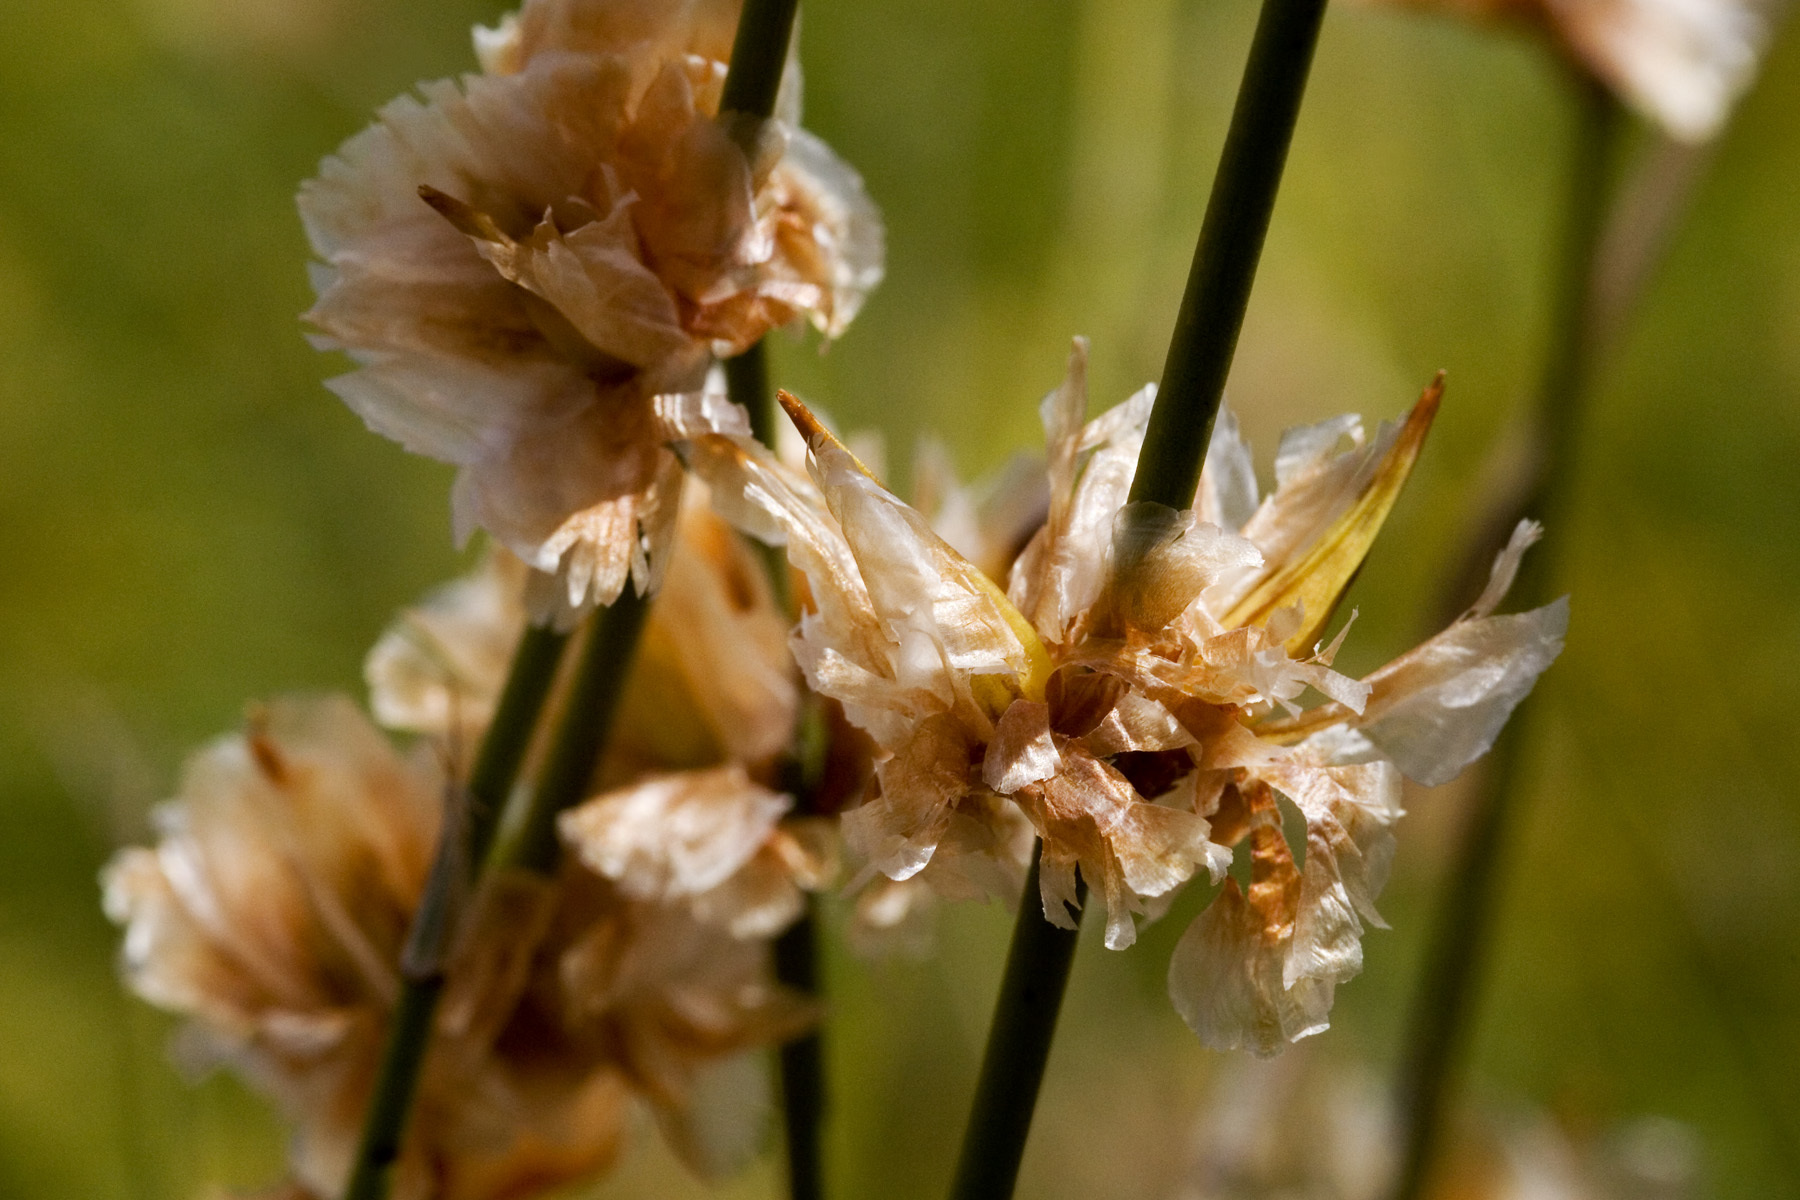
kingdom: Plantae
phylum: Tracheophyta
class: Gnetopsida
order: Ephedrales
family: Ephedraceae
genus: Ephedra
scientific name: Ephedra trifurca
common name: Mexican-tea
